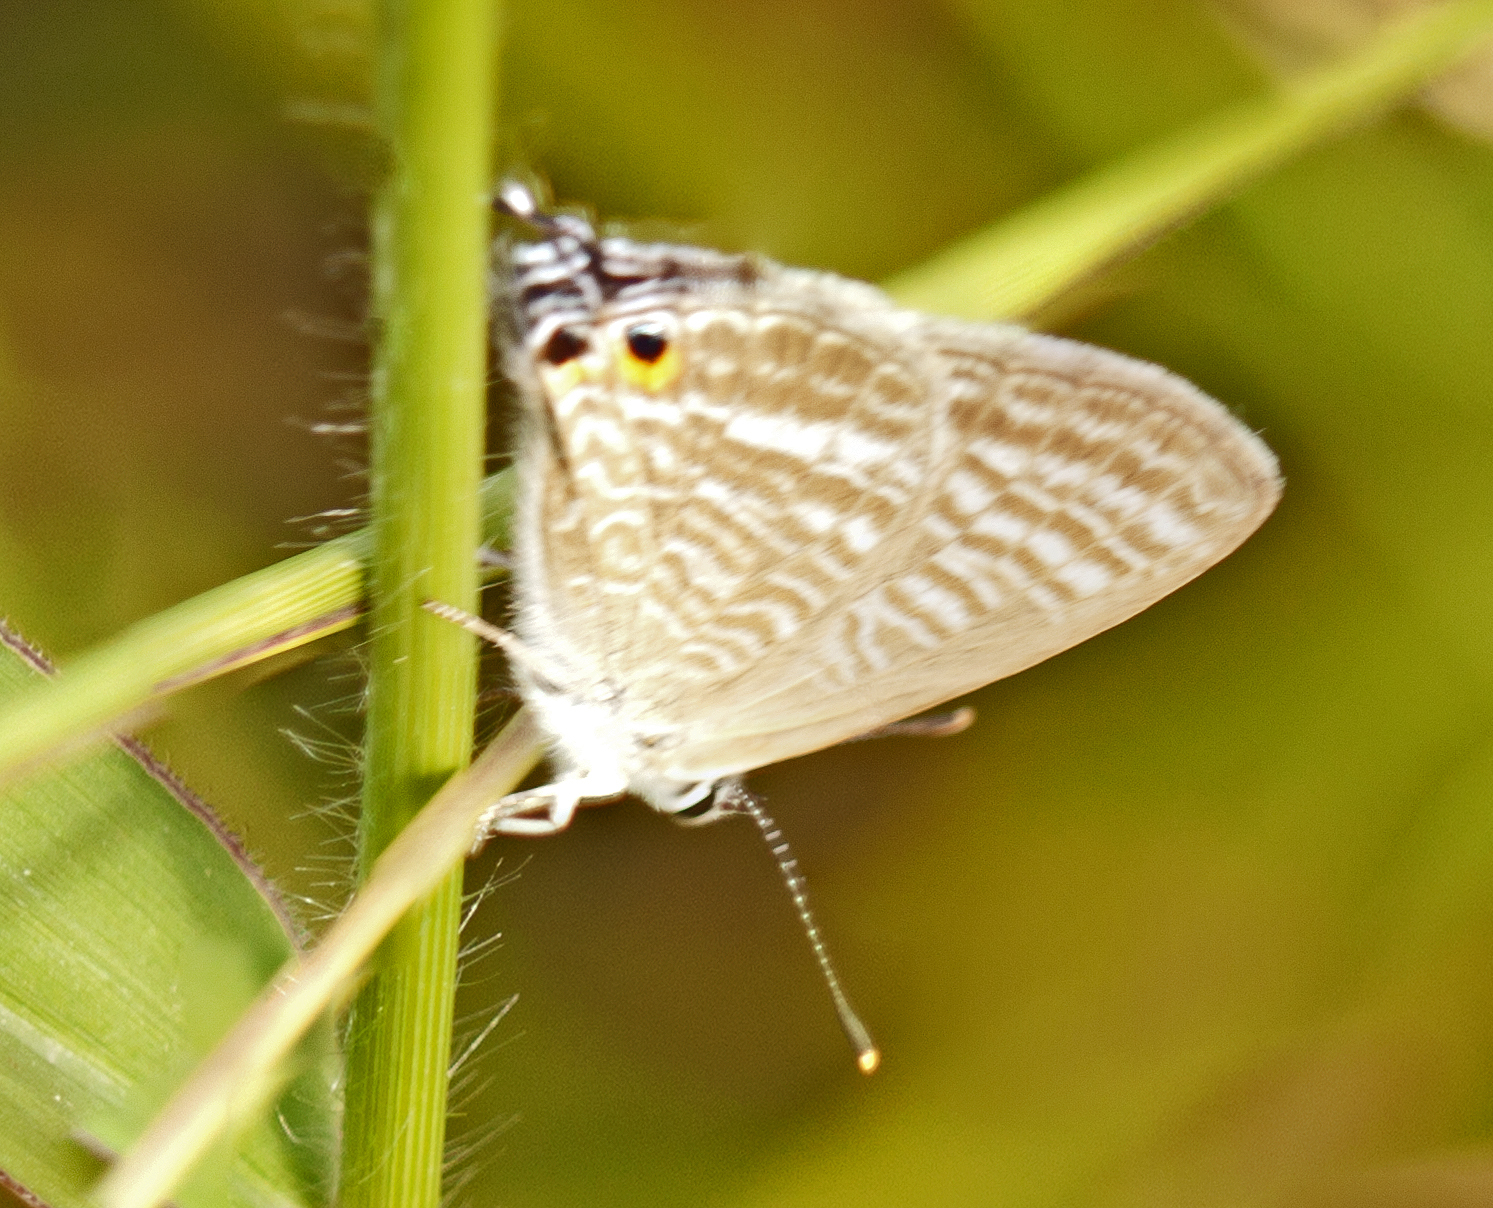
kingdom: Animalia
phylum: Arthropoda
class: Insecta
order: Lepidoptera
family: Lycaenidae
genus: Lampides
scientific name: Lampides boeticus
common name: Long-tailed blue
